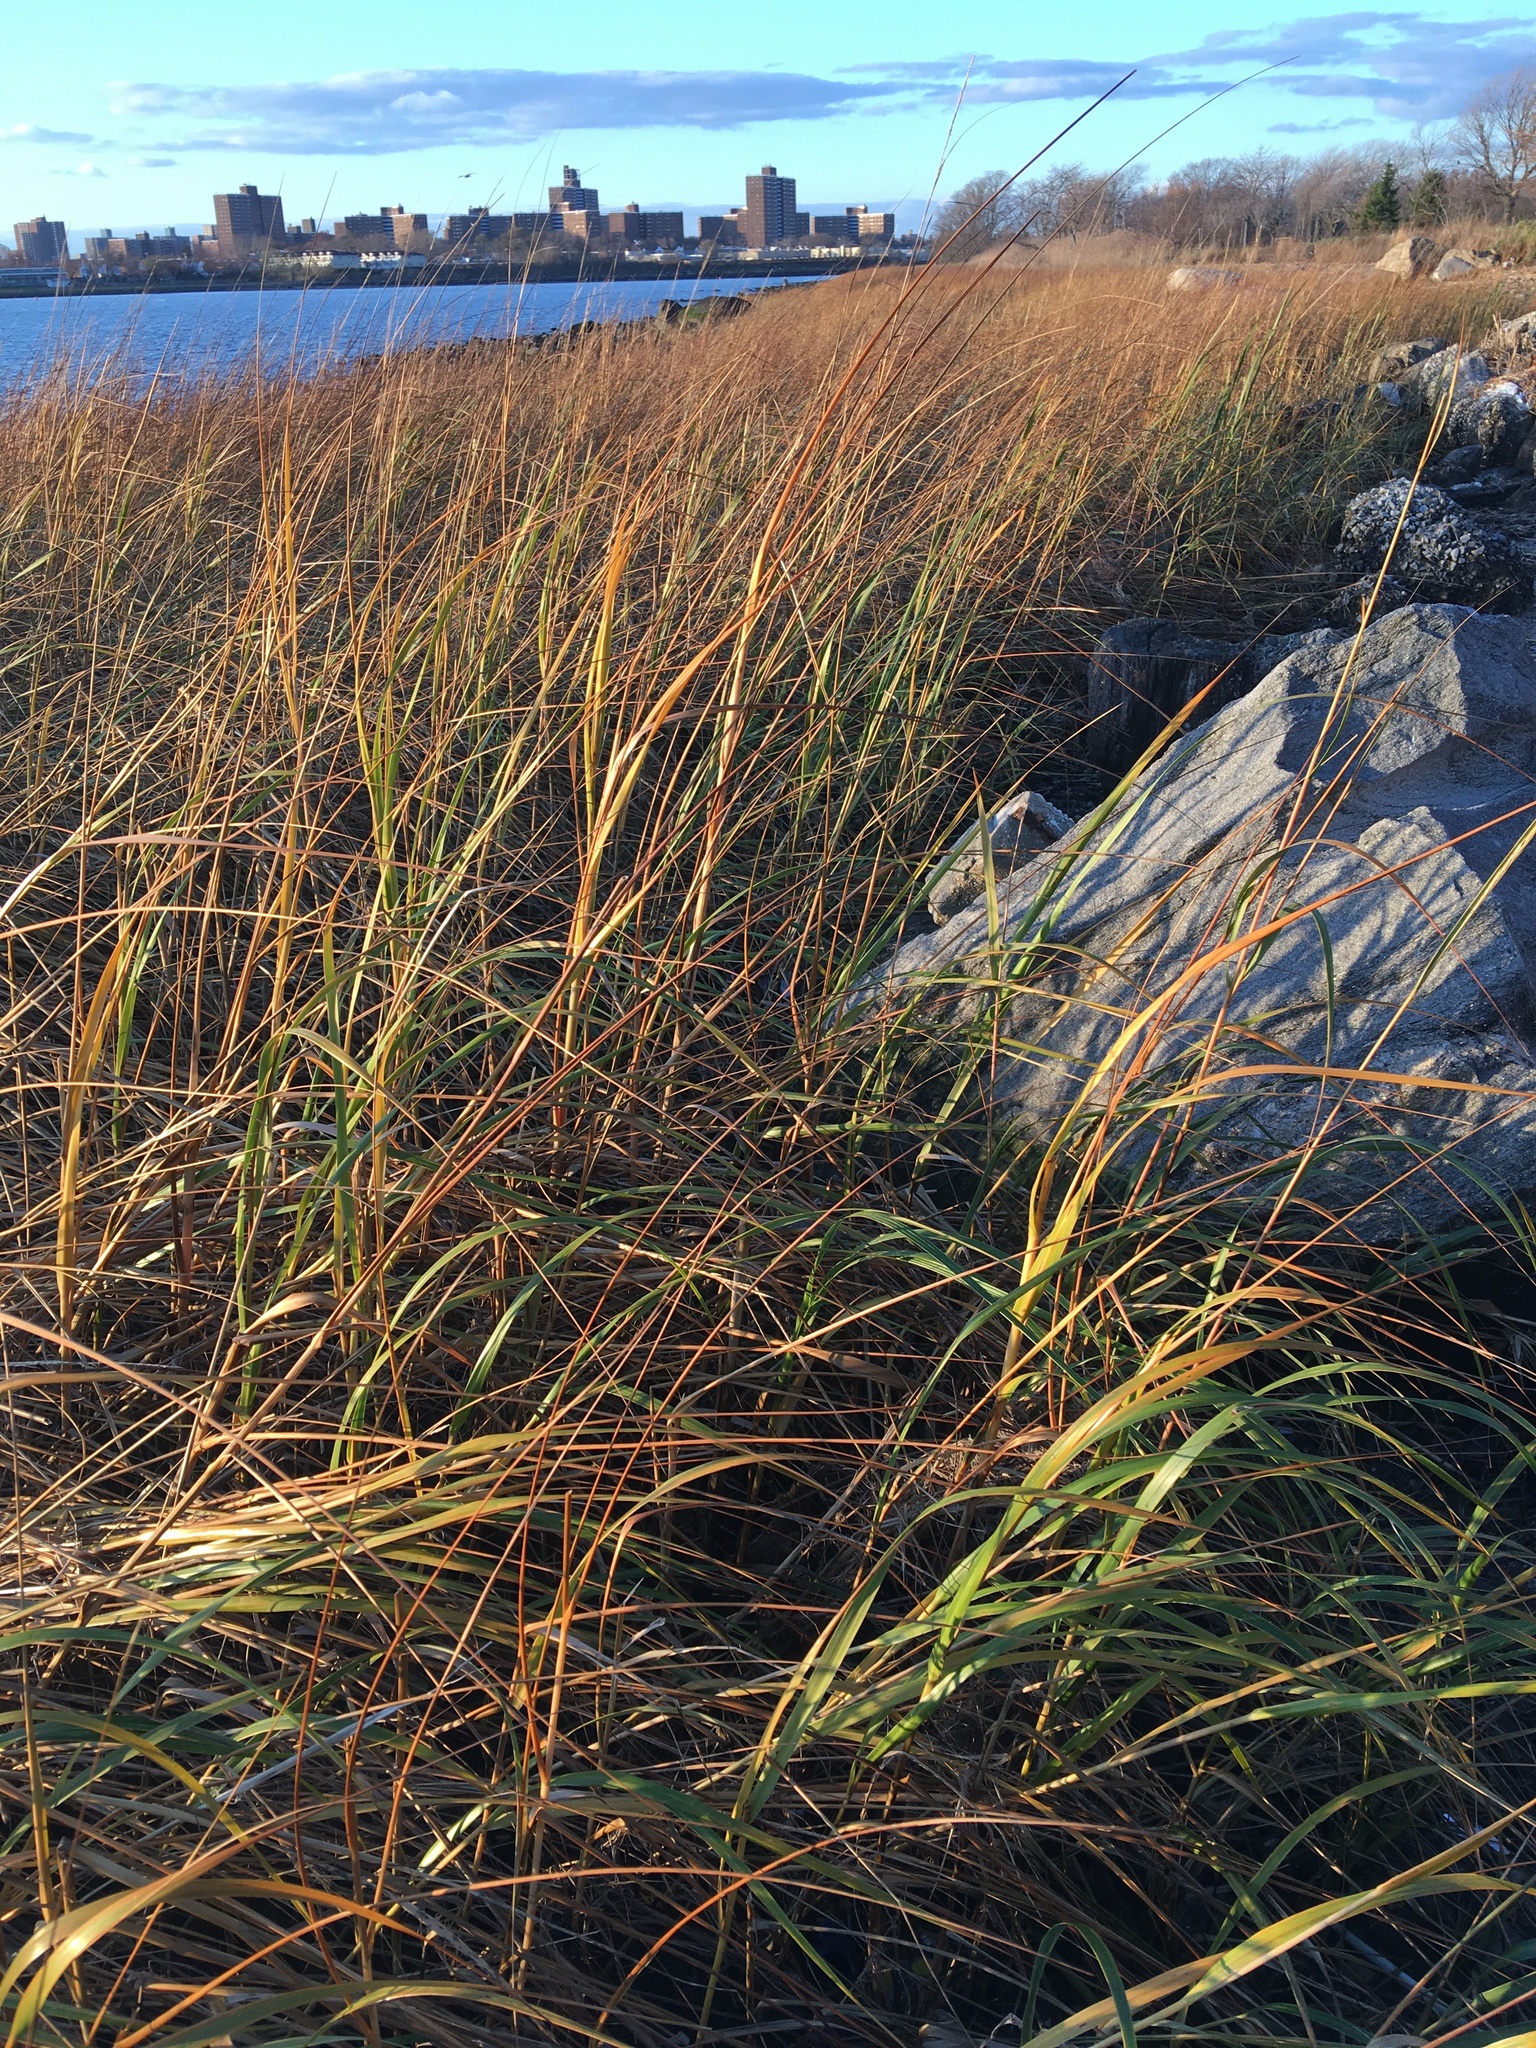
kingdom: Plantae
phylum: Tracheophyta
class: Liliopsida
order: Poales
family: Poaceae
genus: Sporobolus
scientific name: Sporobolus alterniflorus
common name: Atlantic cordgrass
